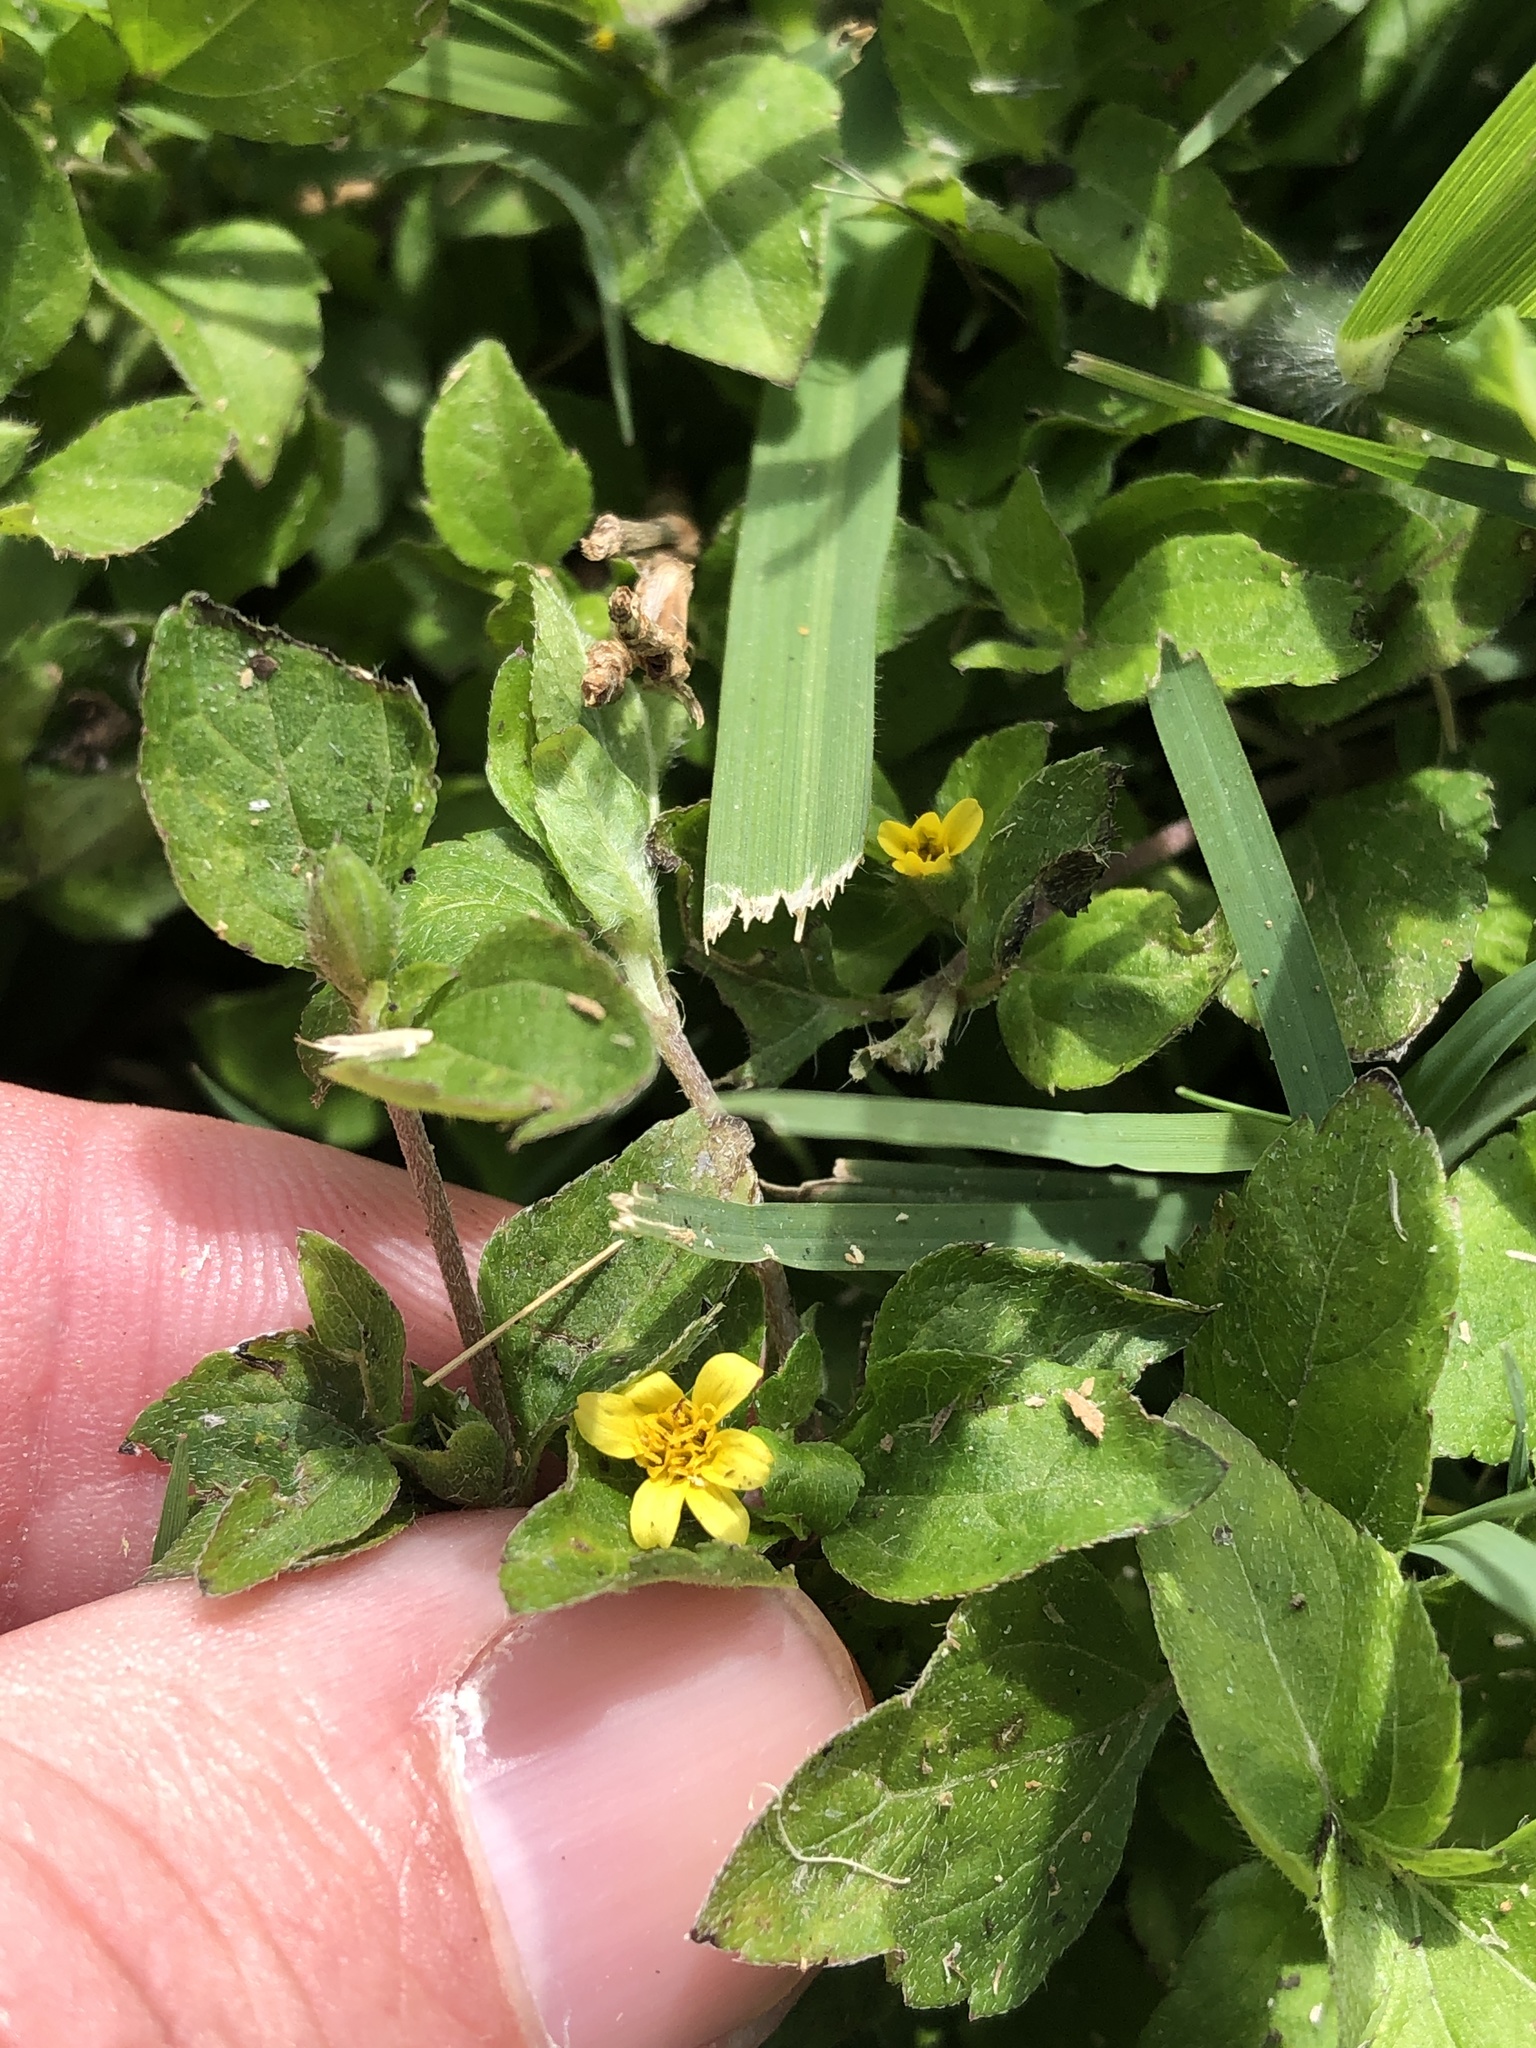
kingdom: Plantae
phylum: Tracheophyta
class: Magnoliopsida
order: Asterales
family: Asteraceae
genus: Calyptocarpus
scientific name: Calyptocarpus vialis
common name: Straggler daisy
